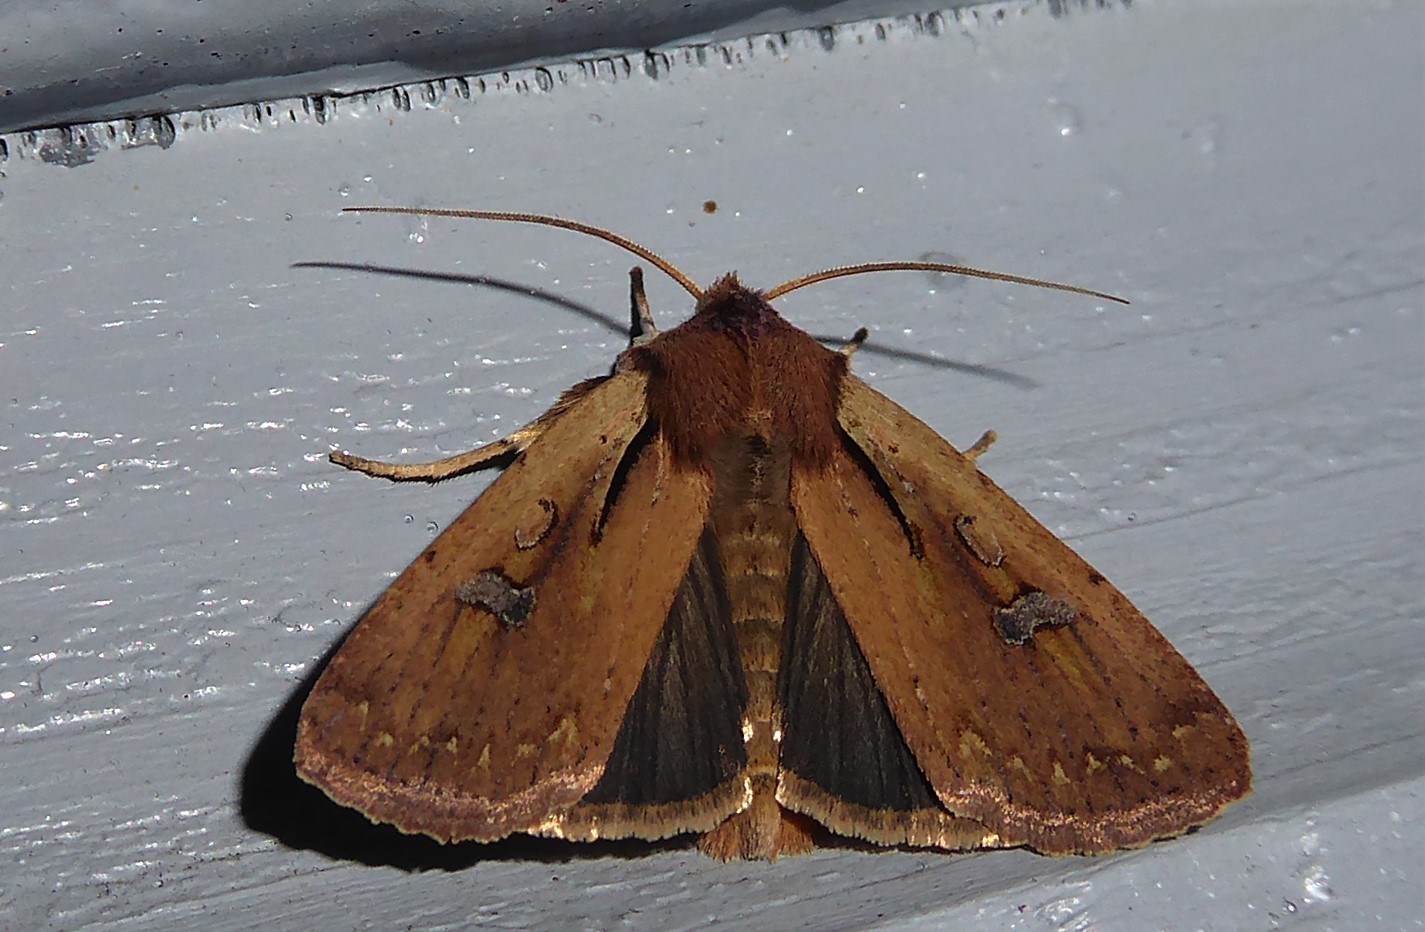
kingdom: Animalia
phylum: Arthropoda
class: Insecta
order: Lepidoptera
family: Noctuidae
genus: Ichneutica
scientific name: Ichneutica atristriga
